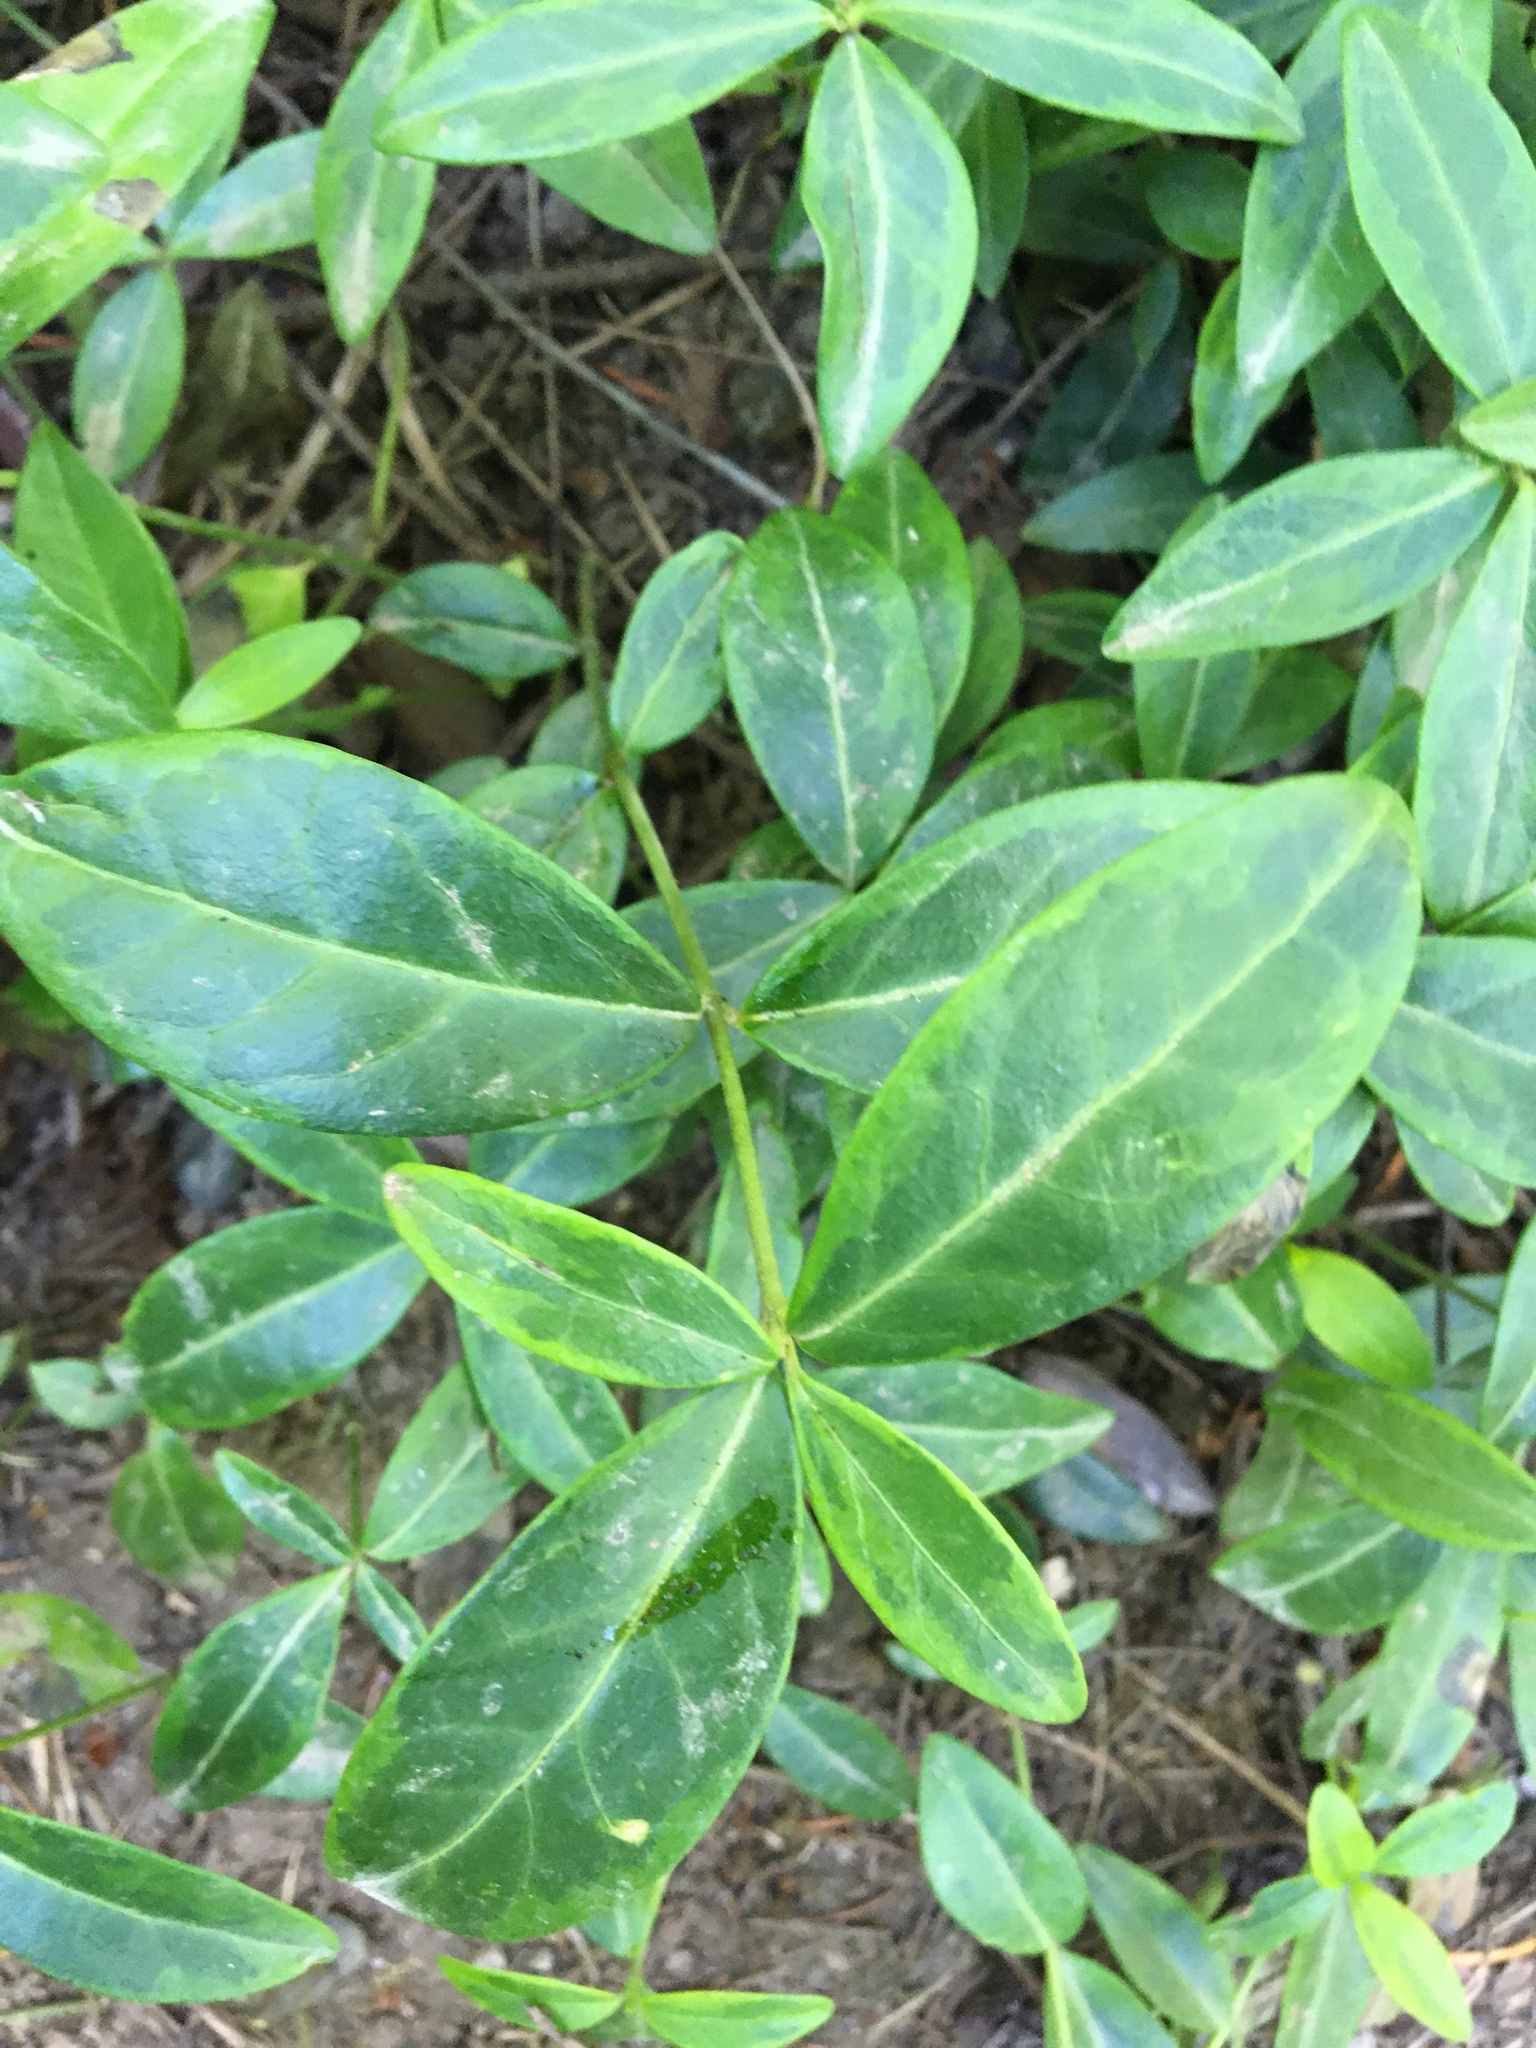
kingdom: Plantae
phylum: Tracheophyta
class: Magnoliopsida
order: Gentianales
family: Apocynaceae
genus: Vinca
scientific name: Vinca minor
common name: Lesser periwinkle
